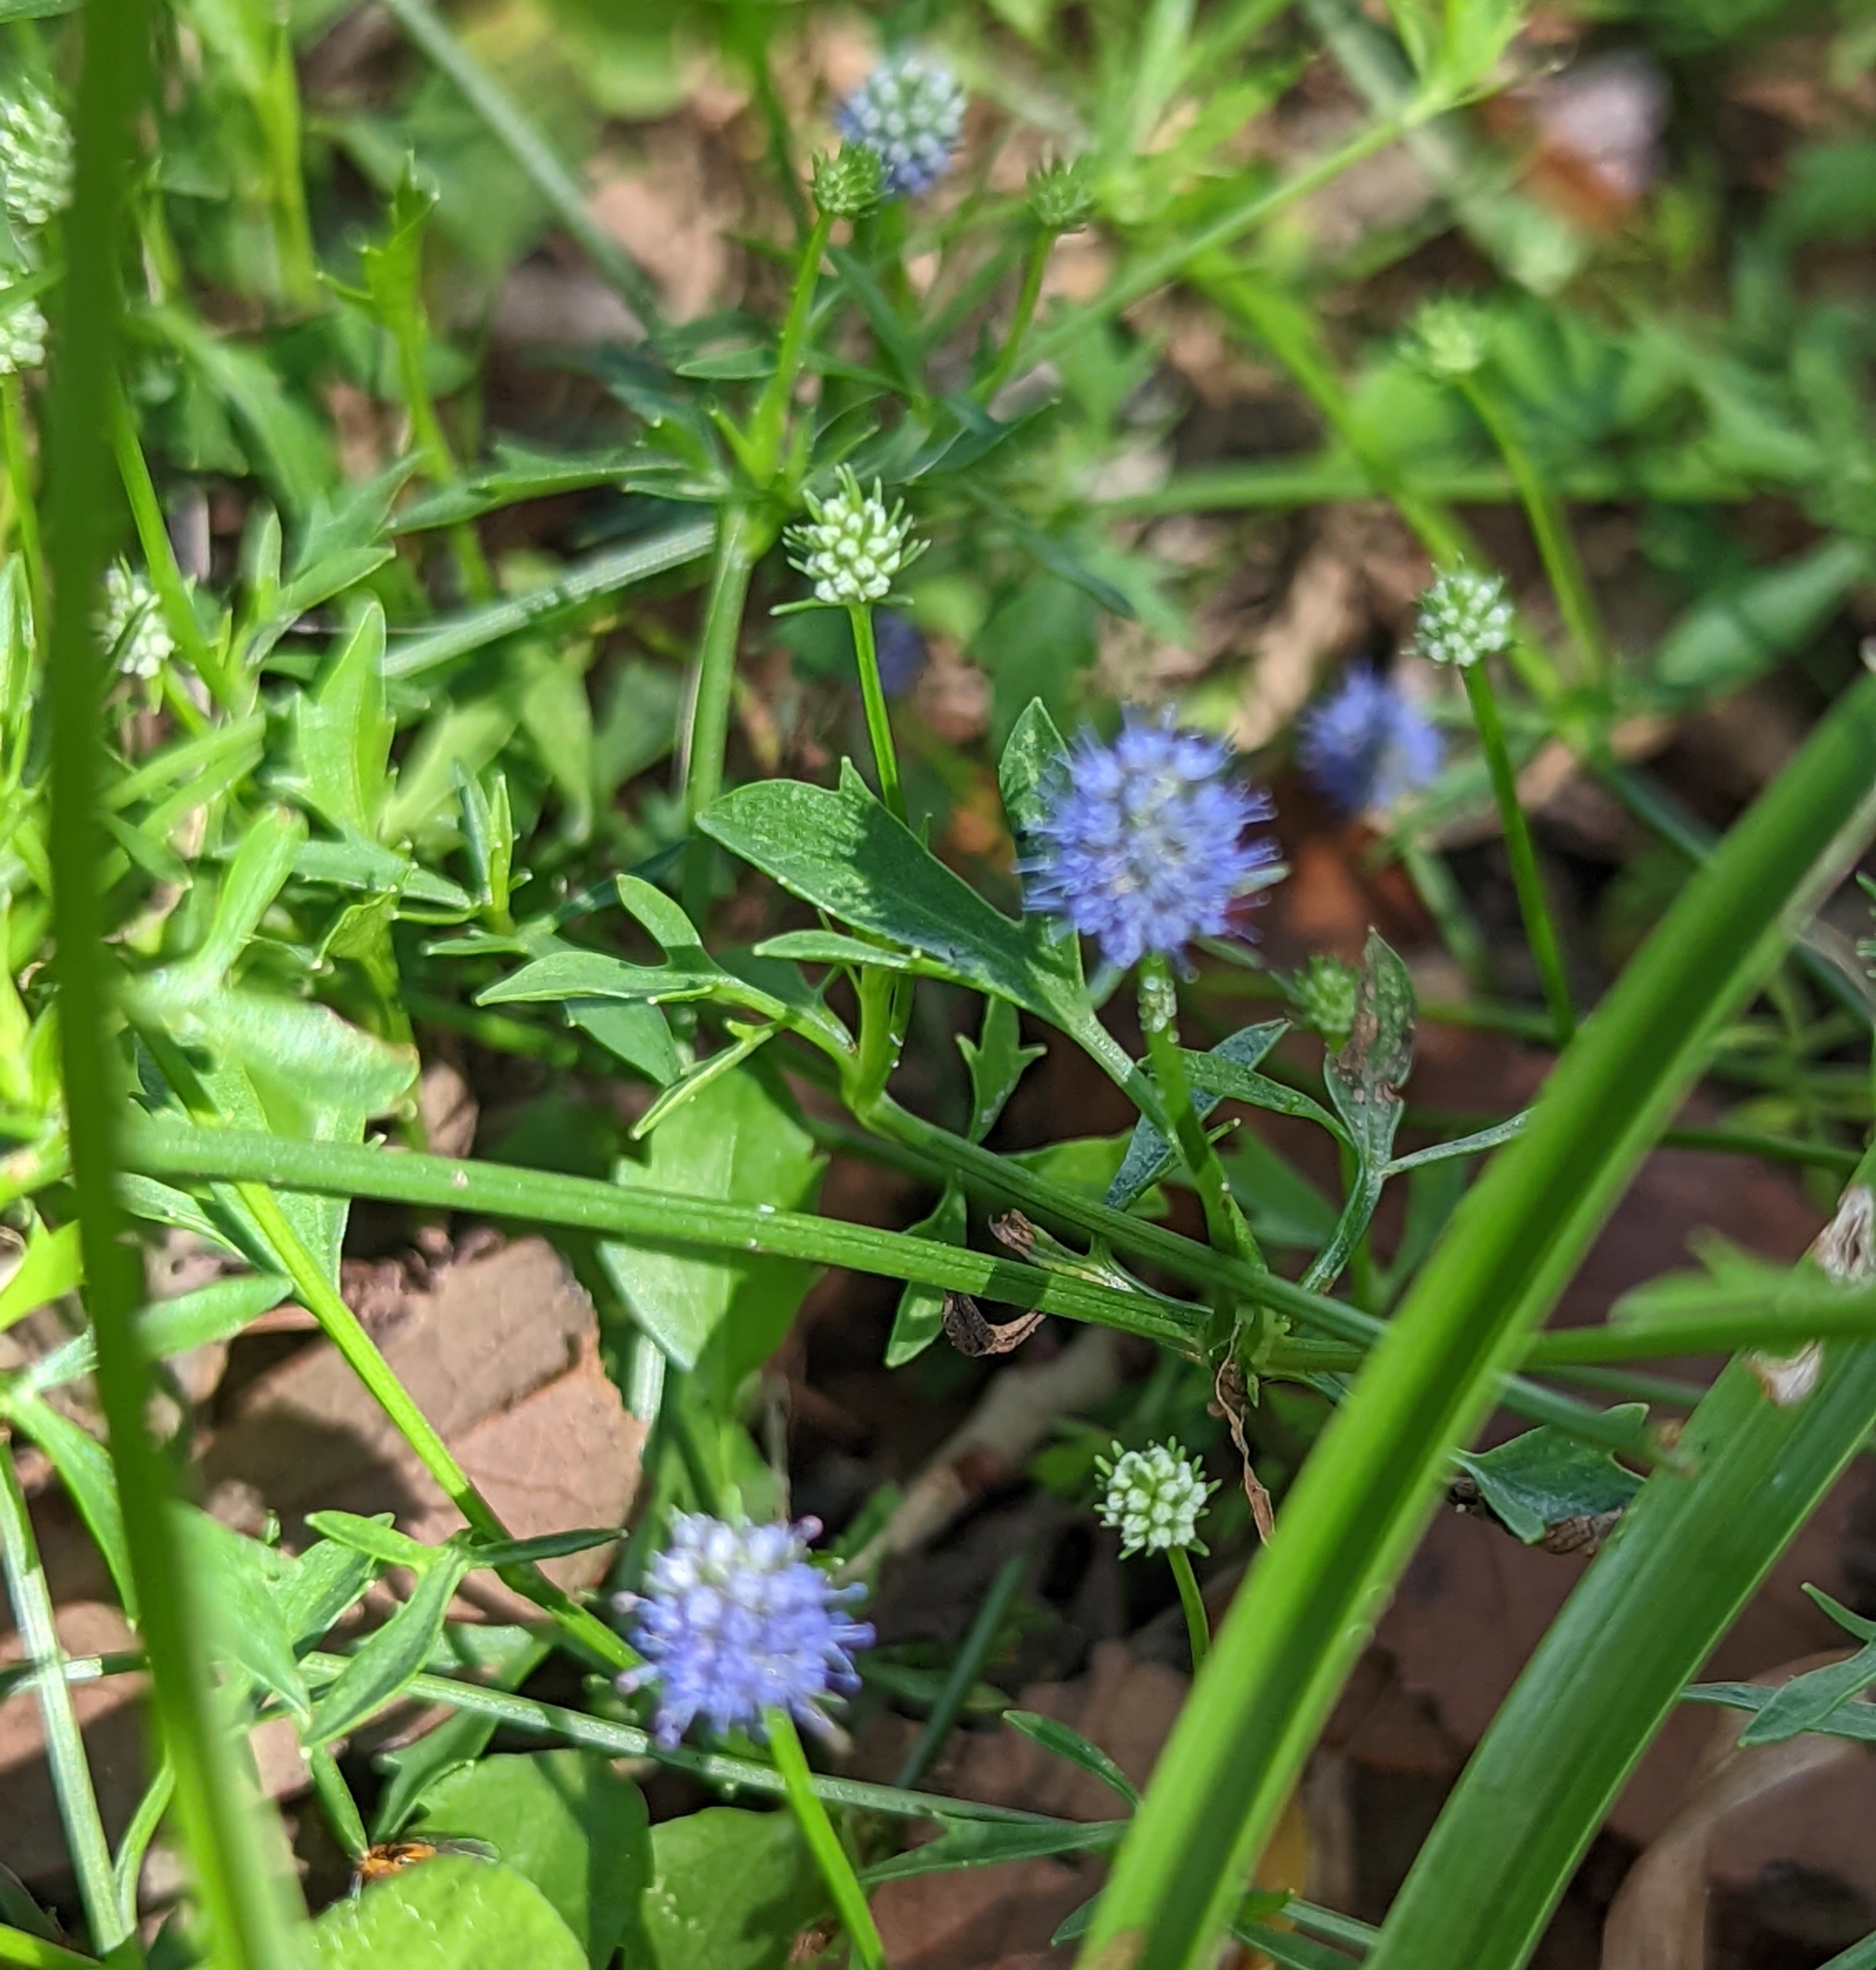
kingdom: Plantae
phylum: Tracheophyta
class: Magnoliopsida
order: Apiales
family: Apiaceae
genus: Eryngium
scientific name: Eryngium baldwinii
